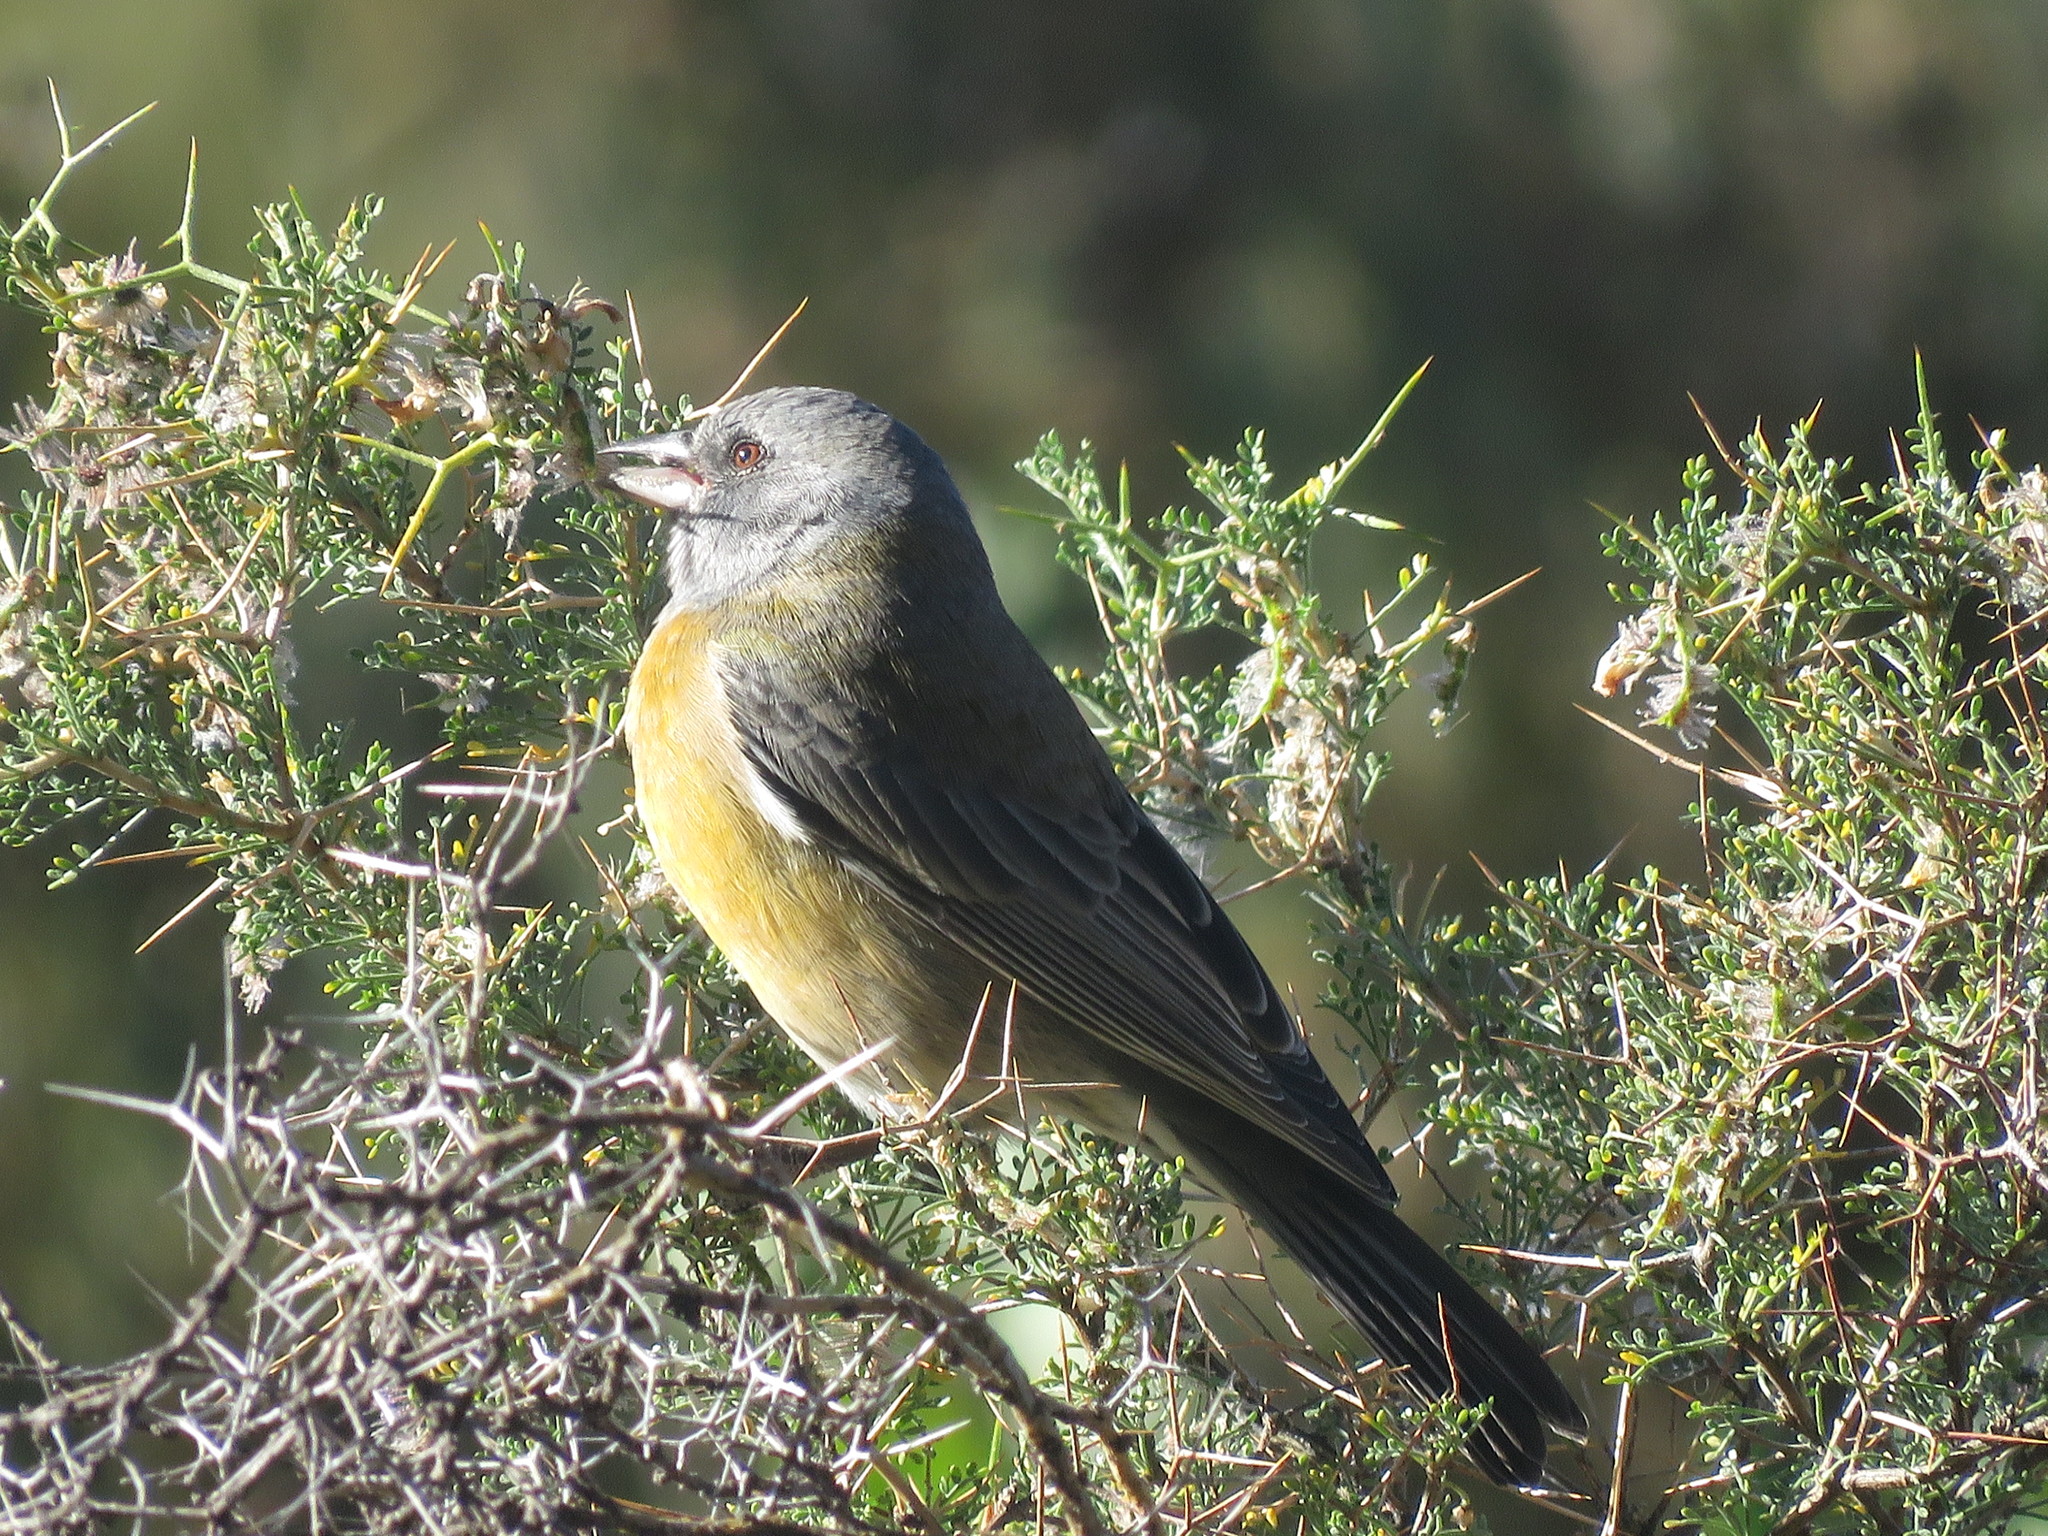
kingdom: Animalia
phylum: Chordata
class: Aves
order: Passeriformes
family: Thraupidae
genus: Phrygilus
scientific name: Phrygilus gayi
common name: Grey-hooded sierra finch
